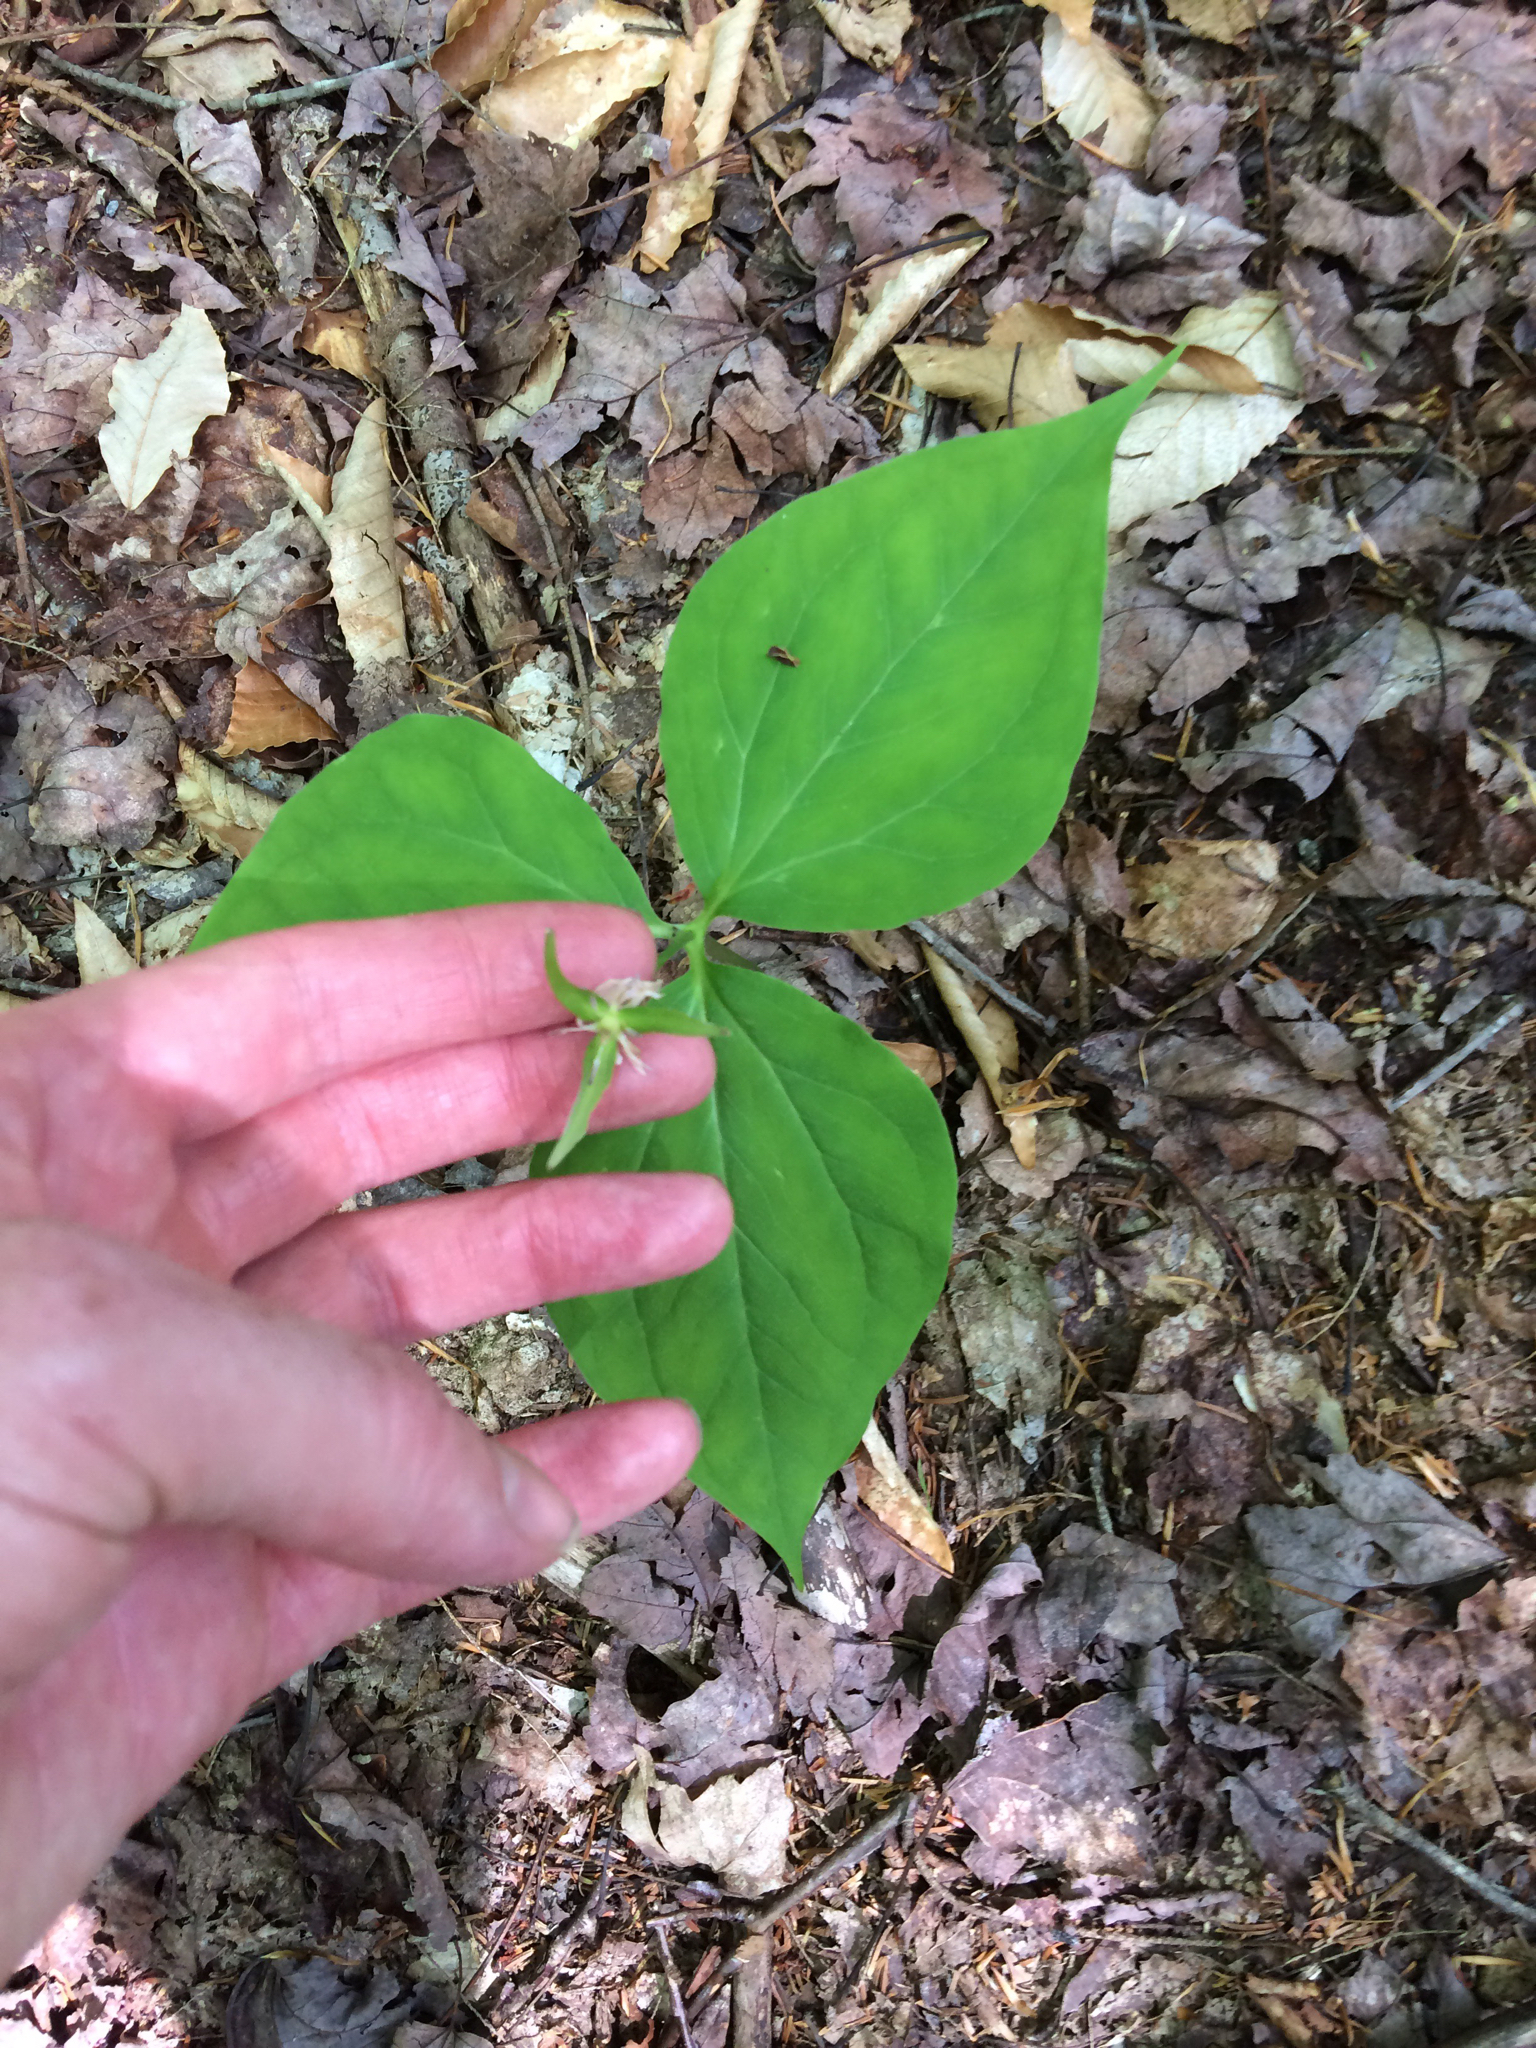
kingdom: Plantae
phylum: Tracheophyta
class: Liliopsida
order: Liliales
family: Melanthiaceae
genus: Trillium
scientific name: Trillium undulatum
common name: Paint trillium
